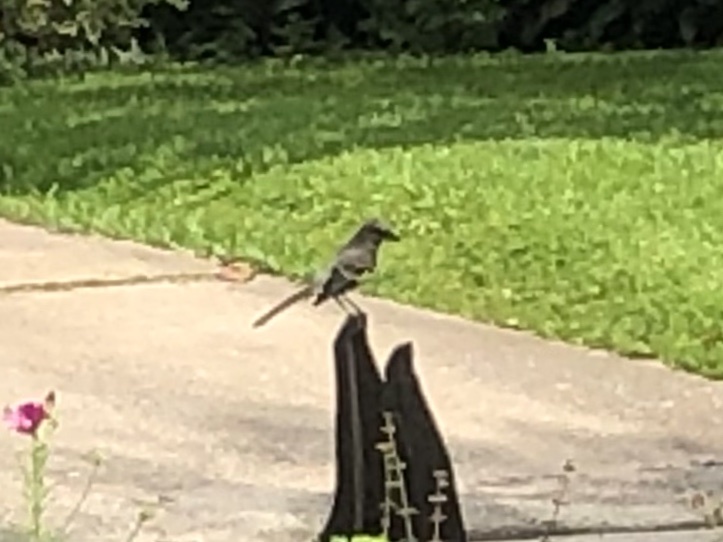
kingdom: Animalia
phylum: Chordata
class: Aves
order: Passeriformes
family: Mimidae
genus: Mimus
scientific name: Mimus polyglottos
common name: Northern mockingbird
